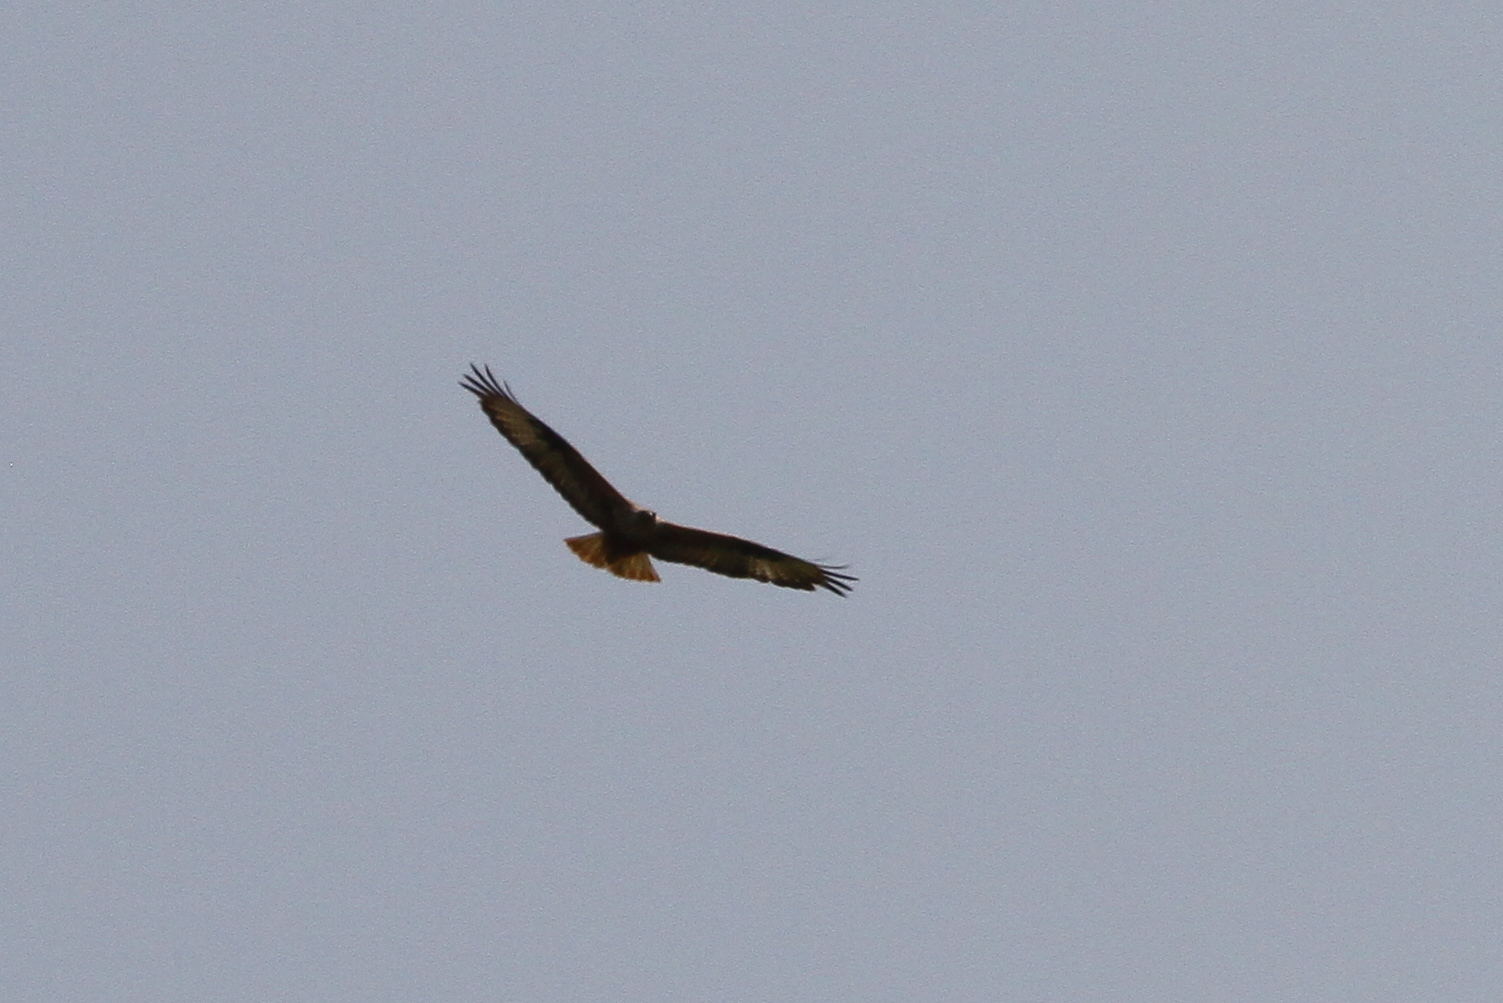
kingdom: Animalia
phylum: Chordata
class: Aves
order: Accipitriformes
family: Accipitridae
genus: Buteo
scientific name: Buteo rufinus
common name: Long-legged buzzard
